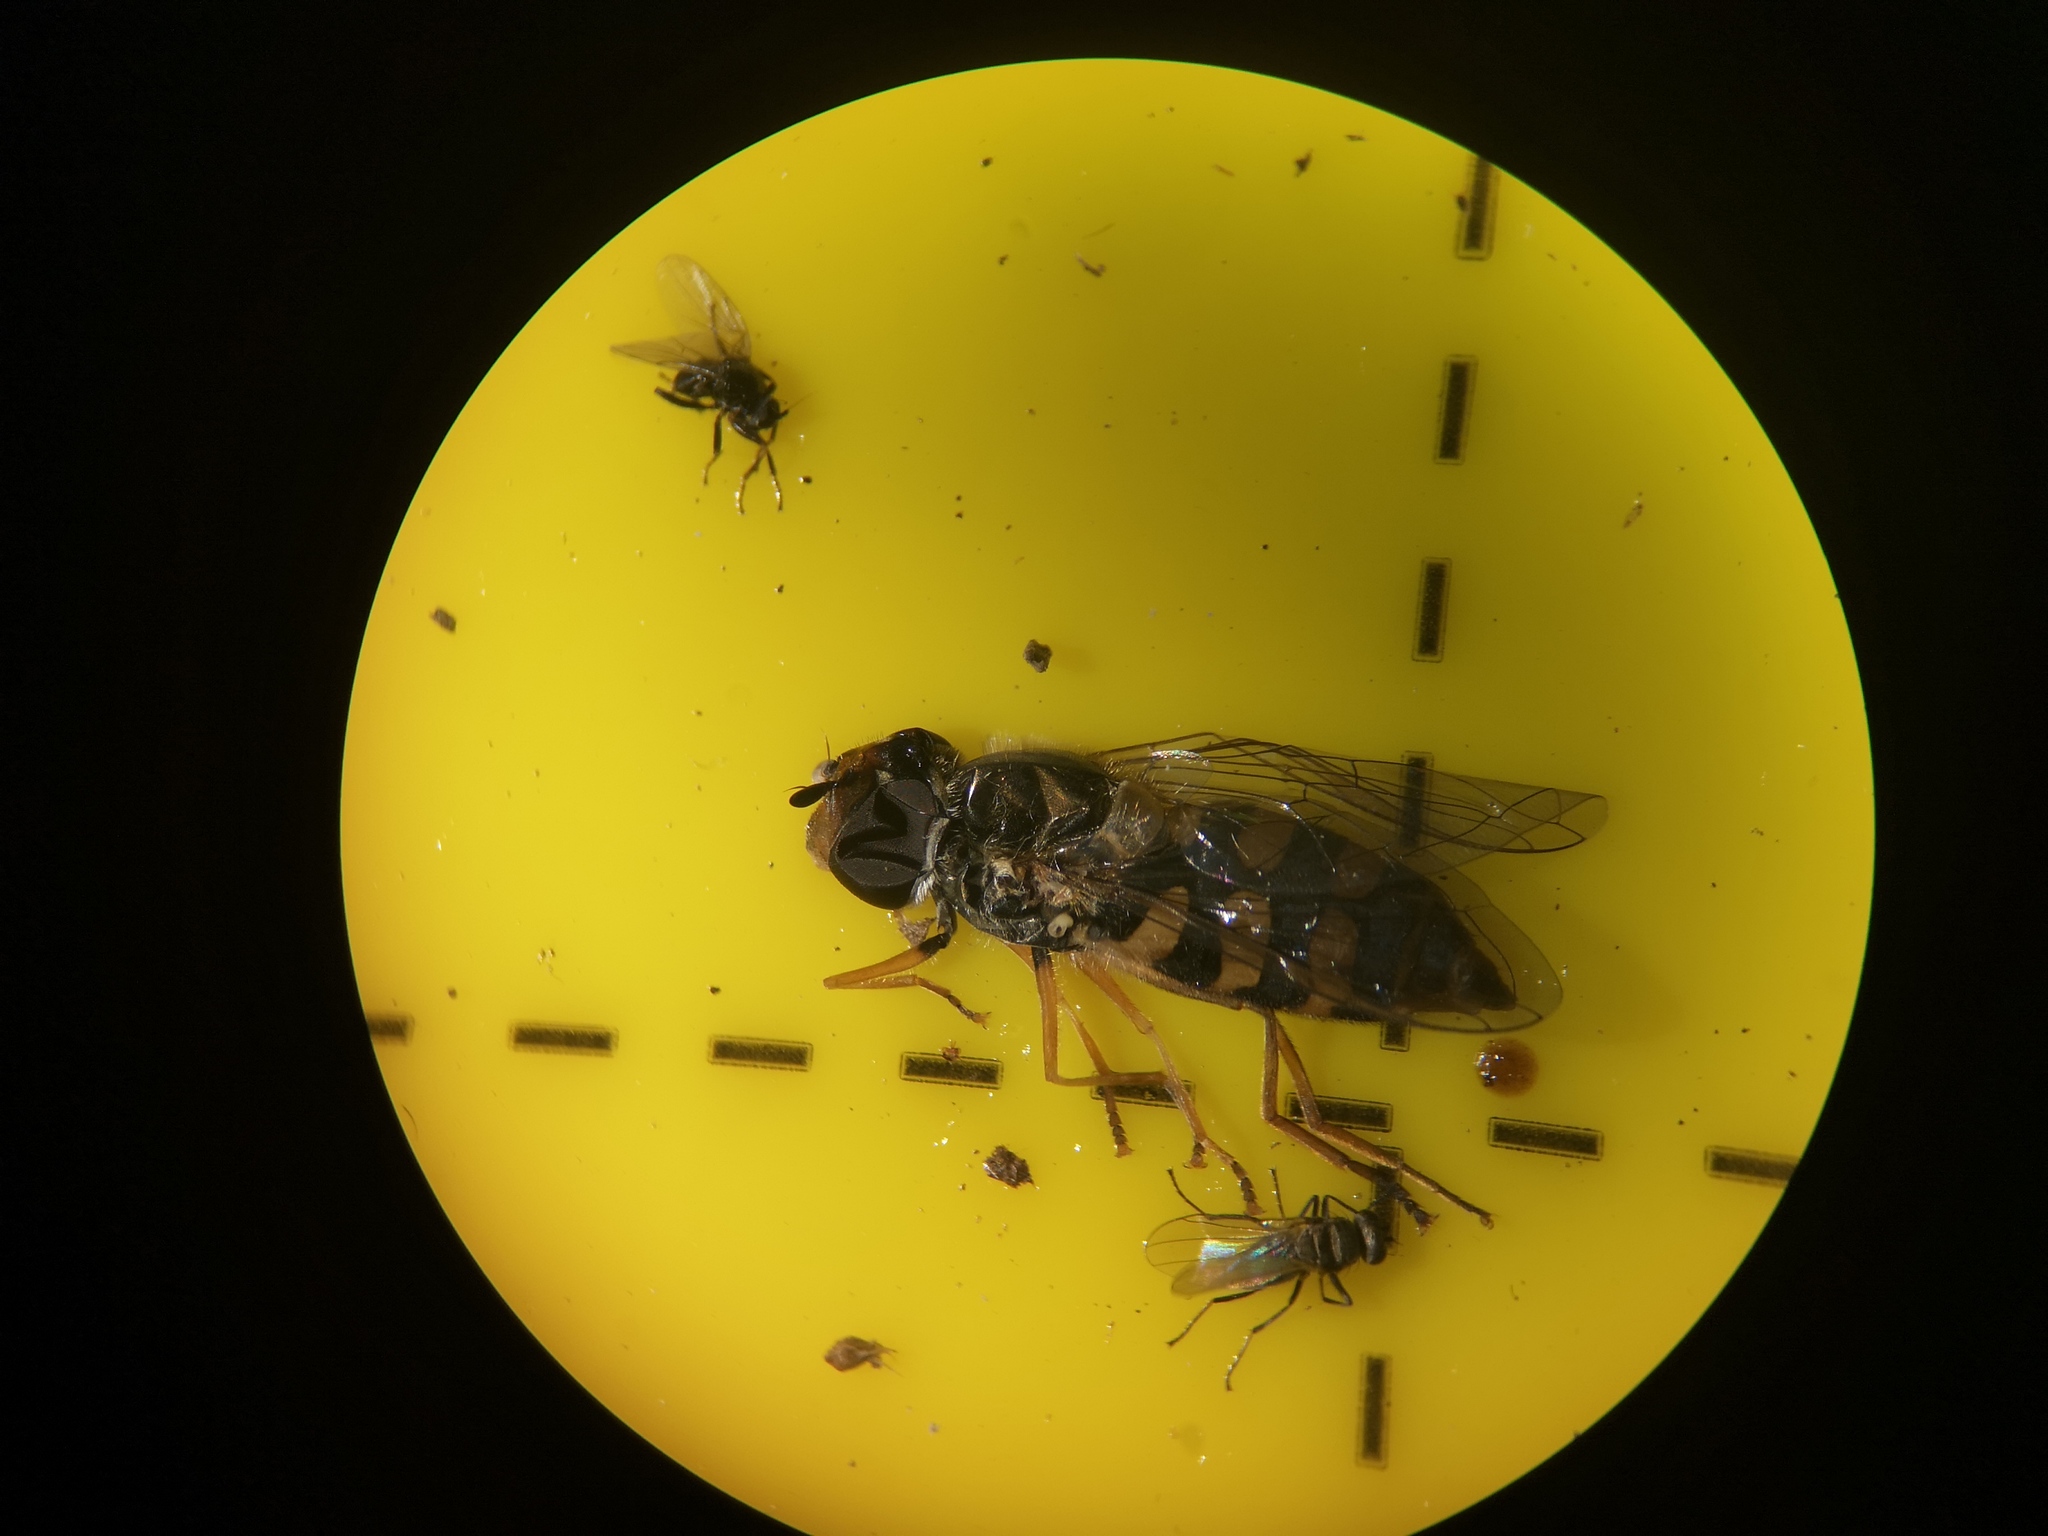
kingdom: Animalia
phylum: Arthropoda
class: Insecta
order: Diptera
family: Syrphidae
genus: Eupeodes
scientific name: Eupeodes corollae
